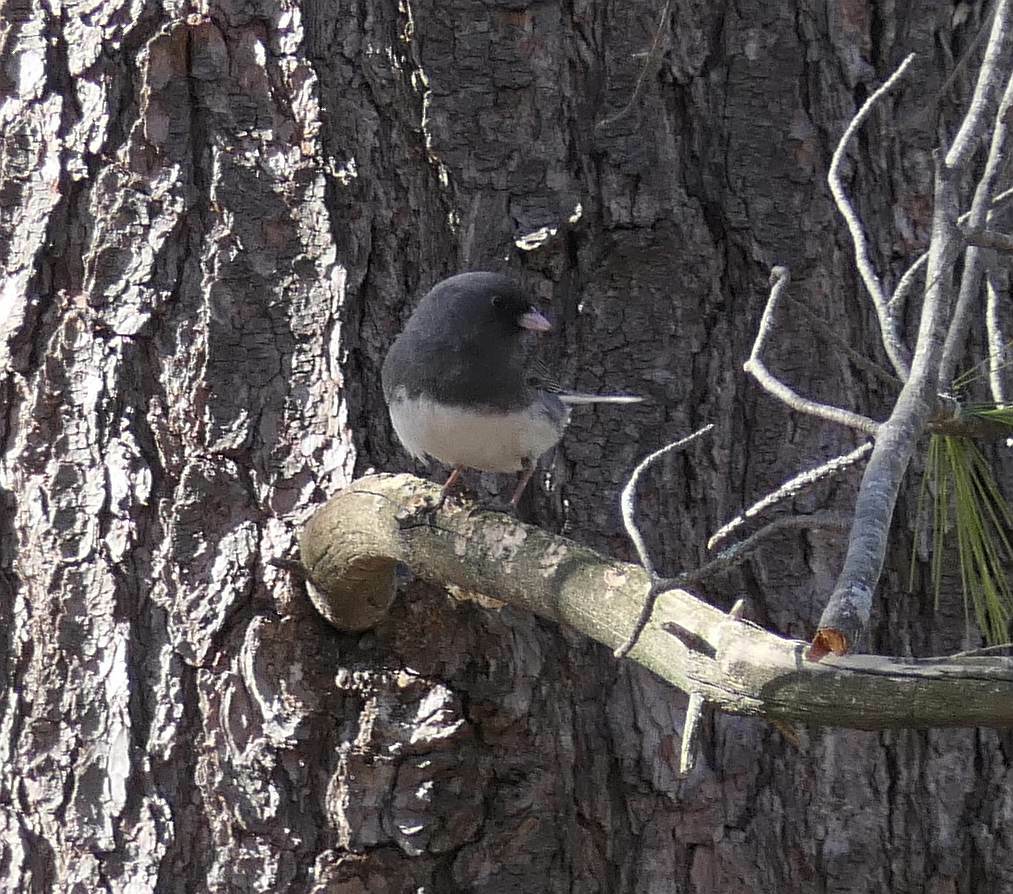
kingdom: Animalia
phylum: Chordata
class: Aves
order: Passeriformes
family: Passerellidae
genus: Junco
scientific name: Junco hyemalis
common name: Dark-eyed junco
